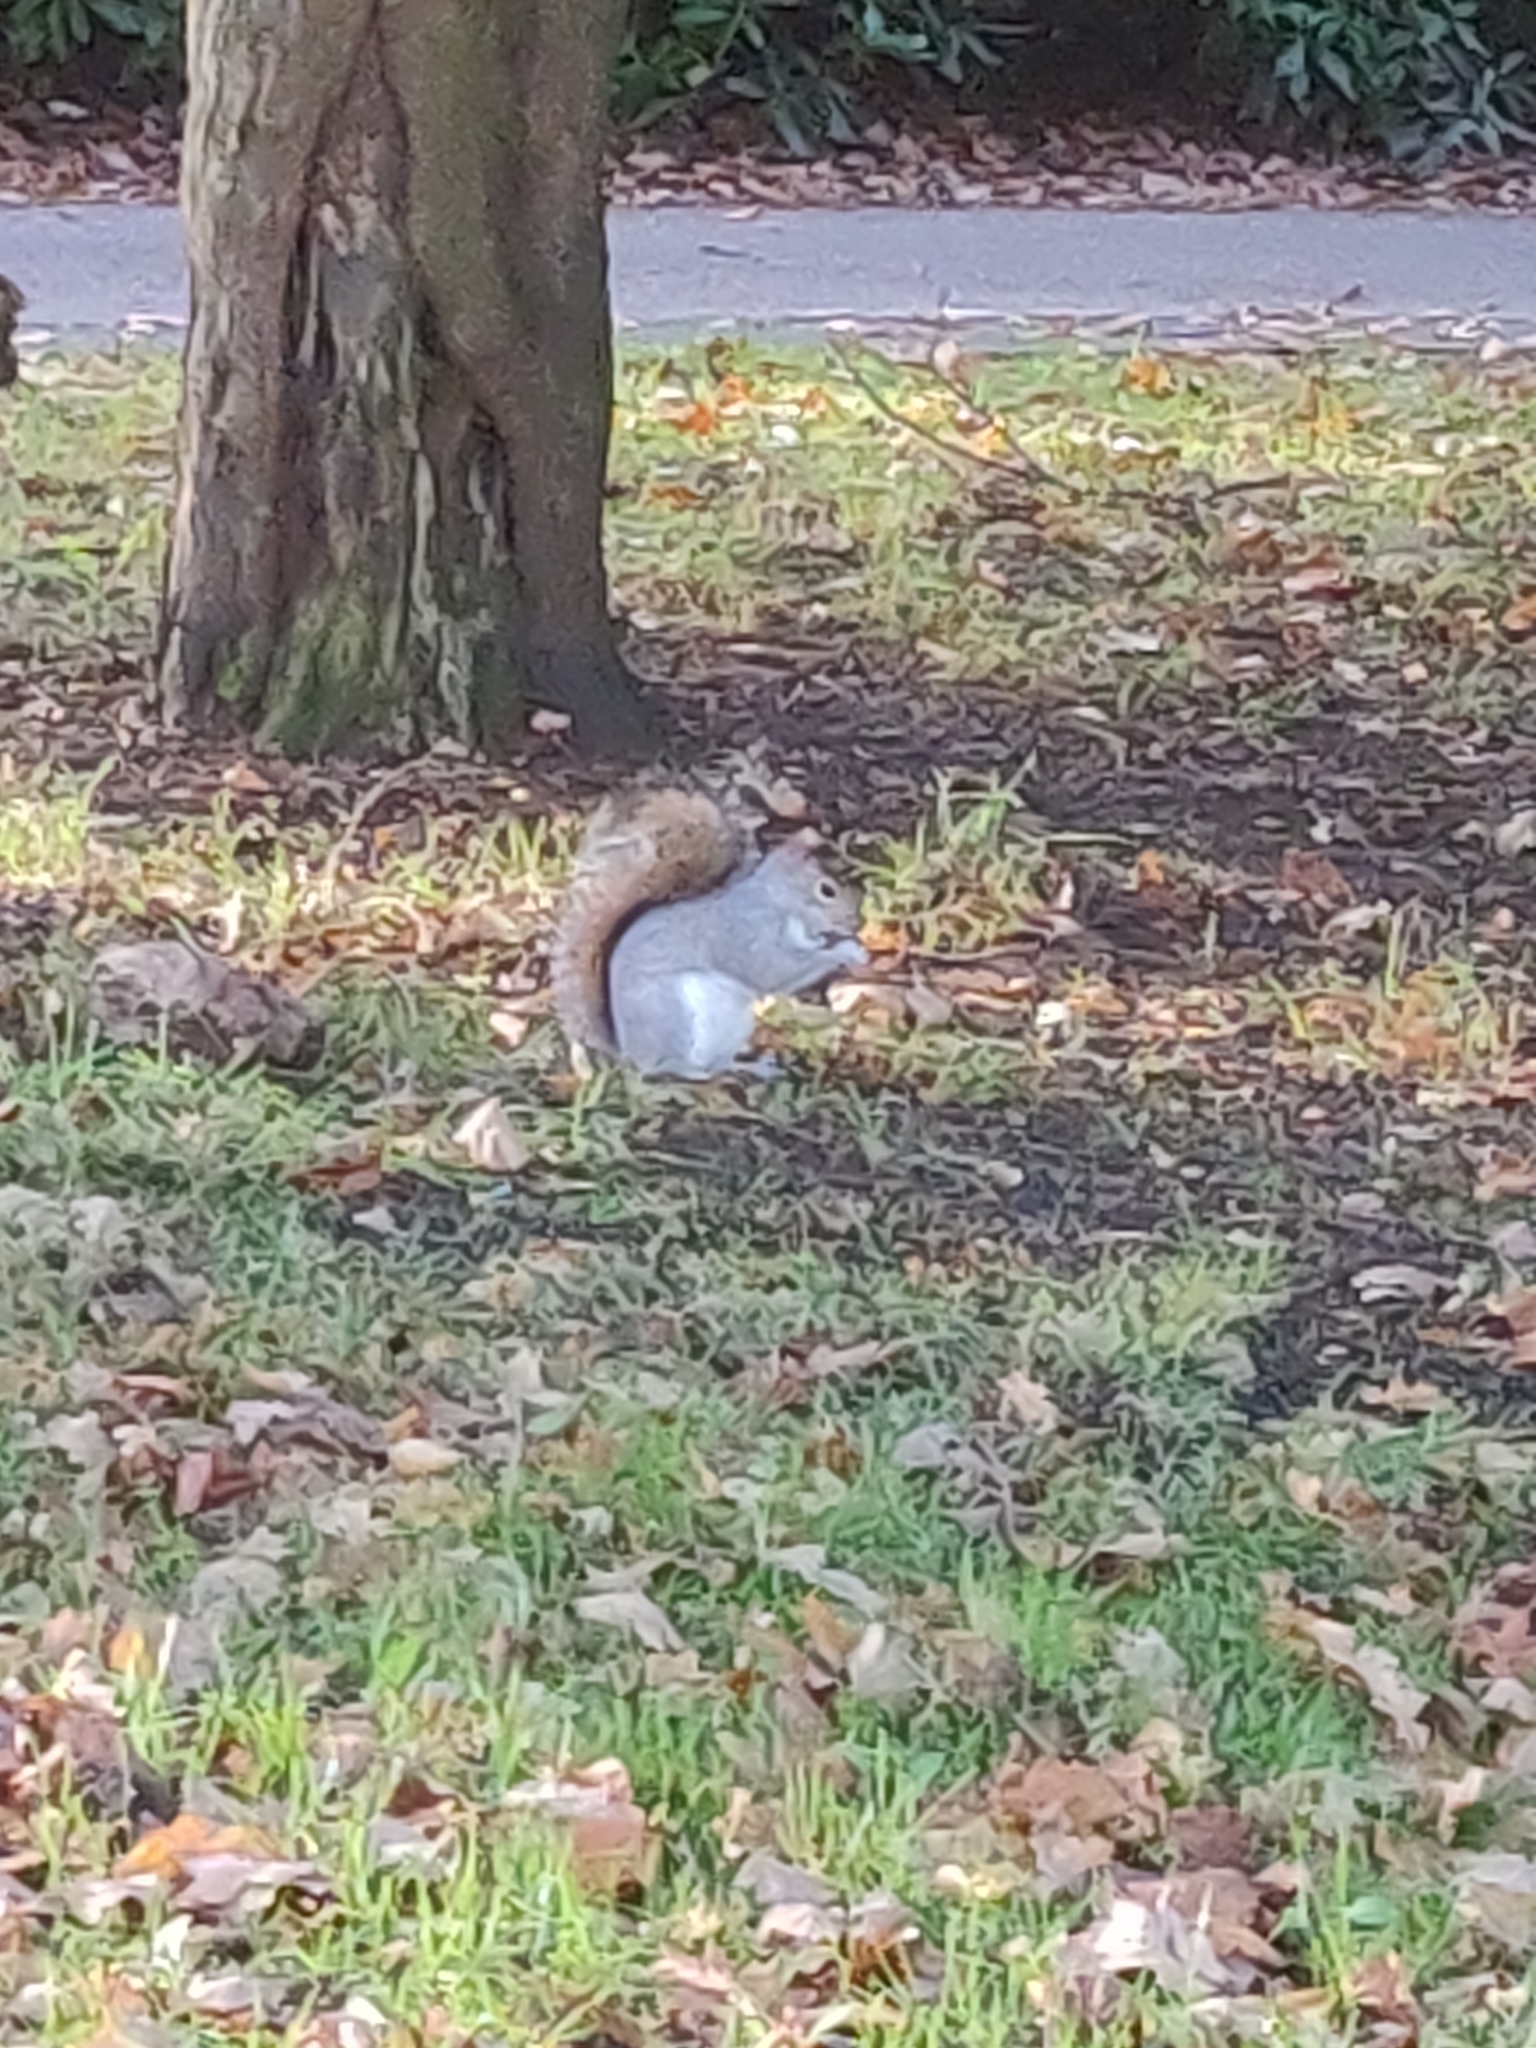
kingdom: Animalia
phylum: Chordata
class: Mammalia
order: Rodentia
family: Sciuridae
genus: Sciurus
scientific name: Sciurus carolinensis
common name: Eastern gray squirrel
